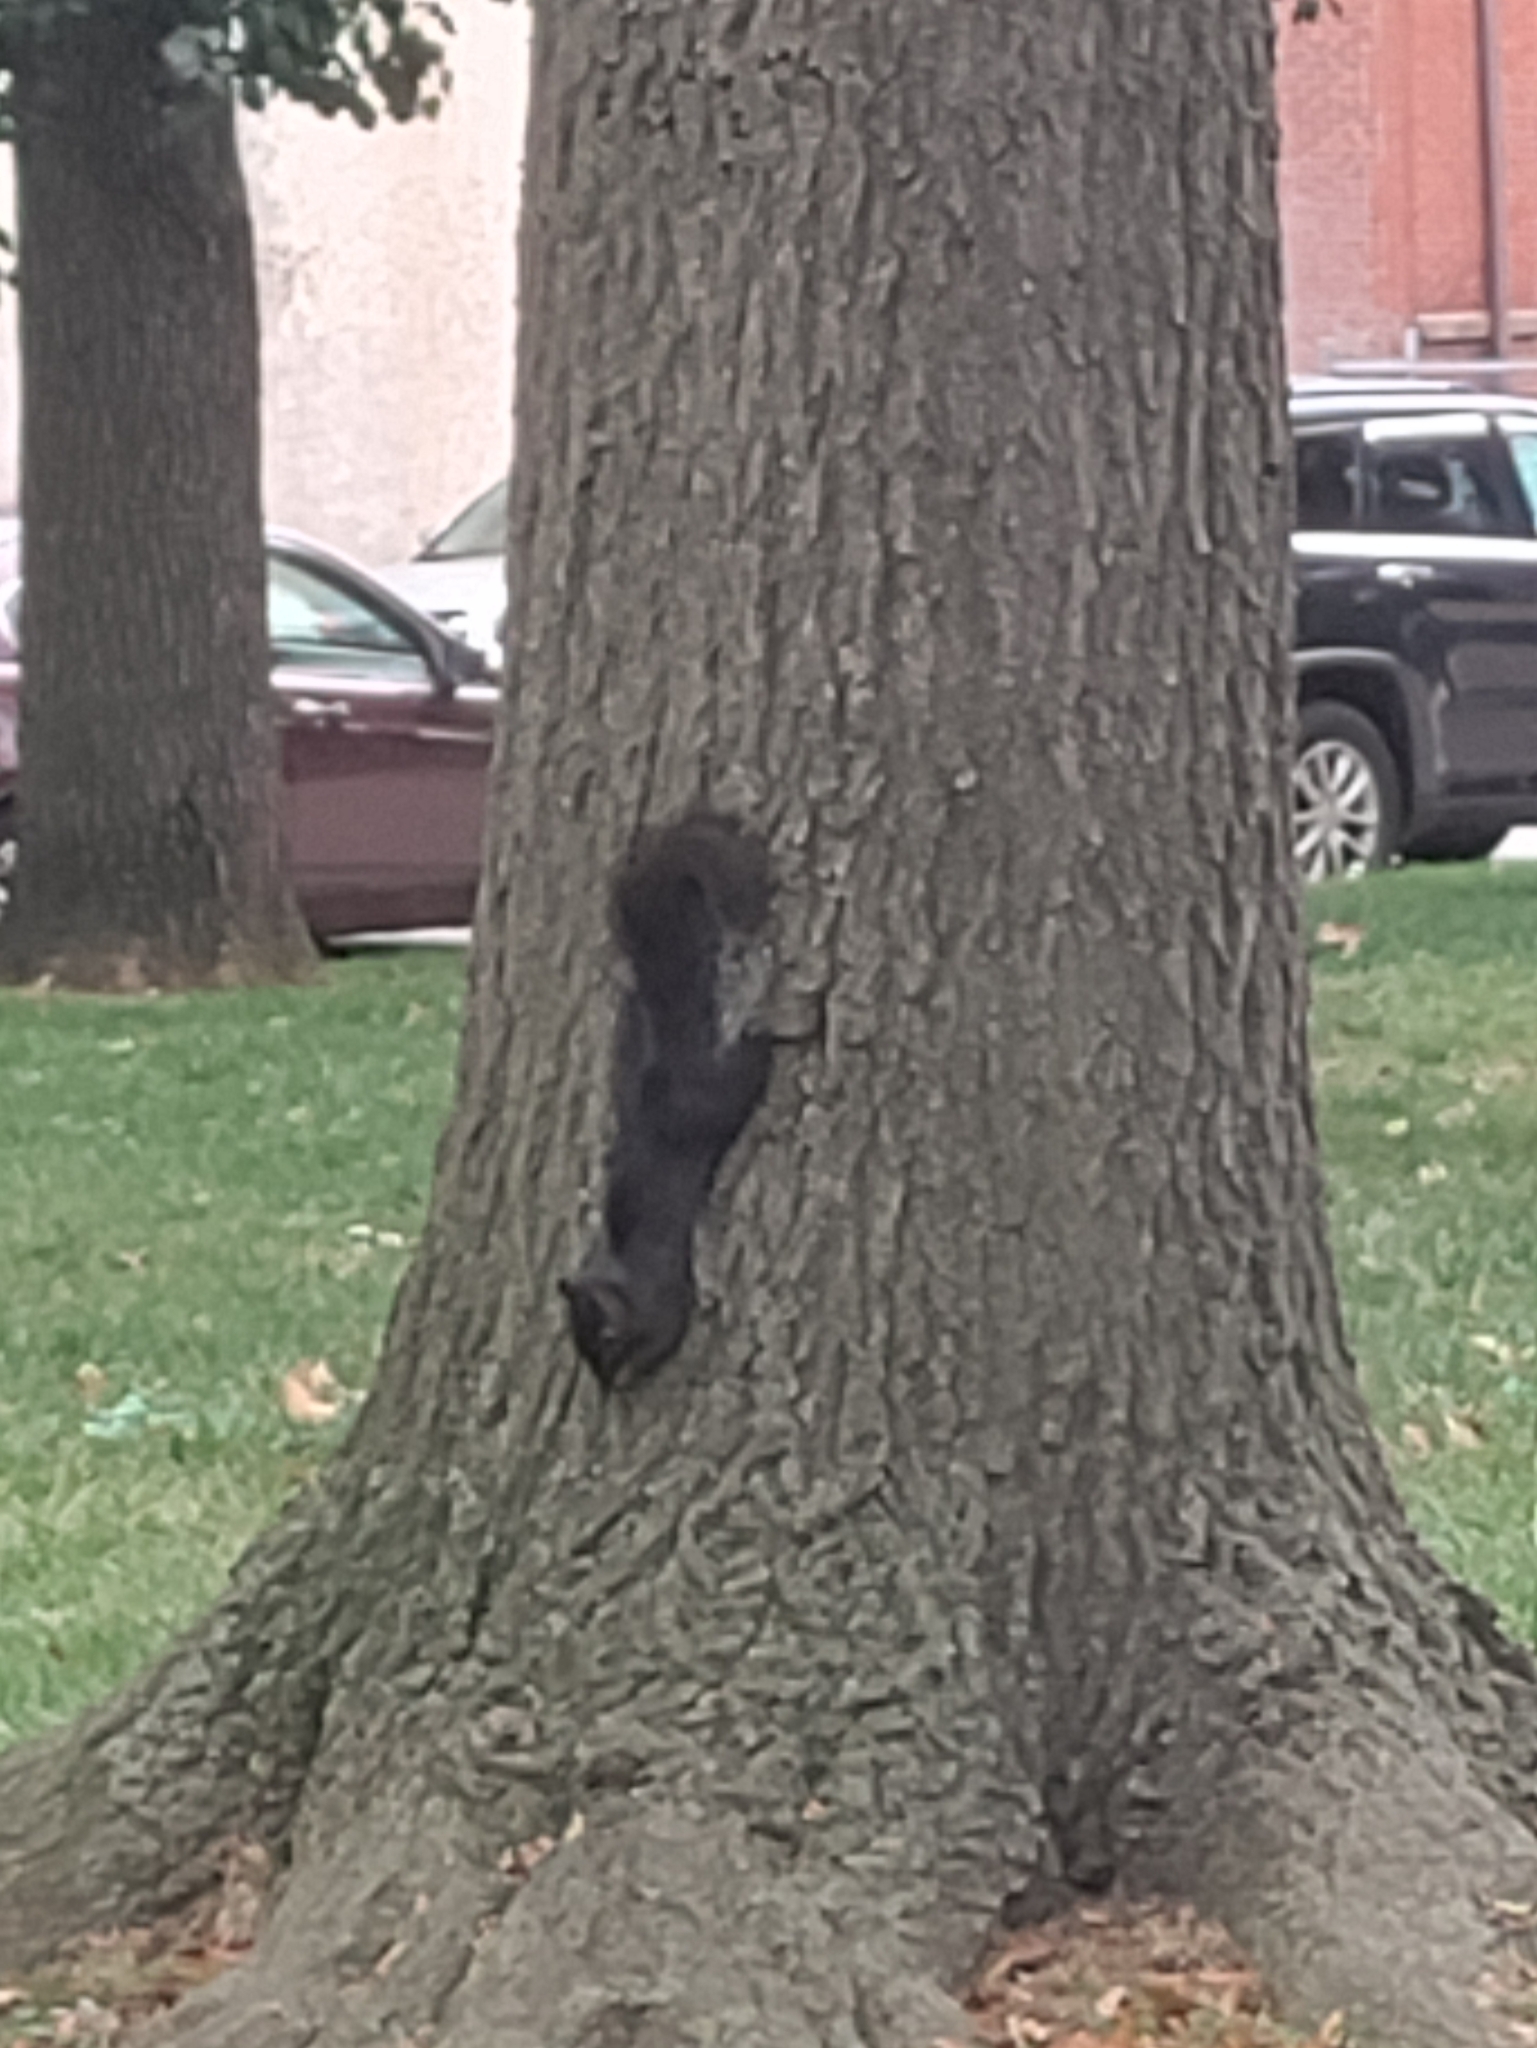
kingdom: Animalia
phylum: Chordata
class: Mammalia
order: Rodentia
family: Sciuridae
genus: Sciurus
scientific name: Sciurus carolinensis
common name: Eastern gray squirrel
